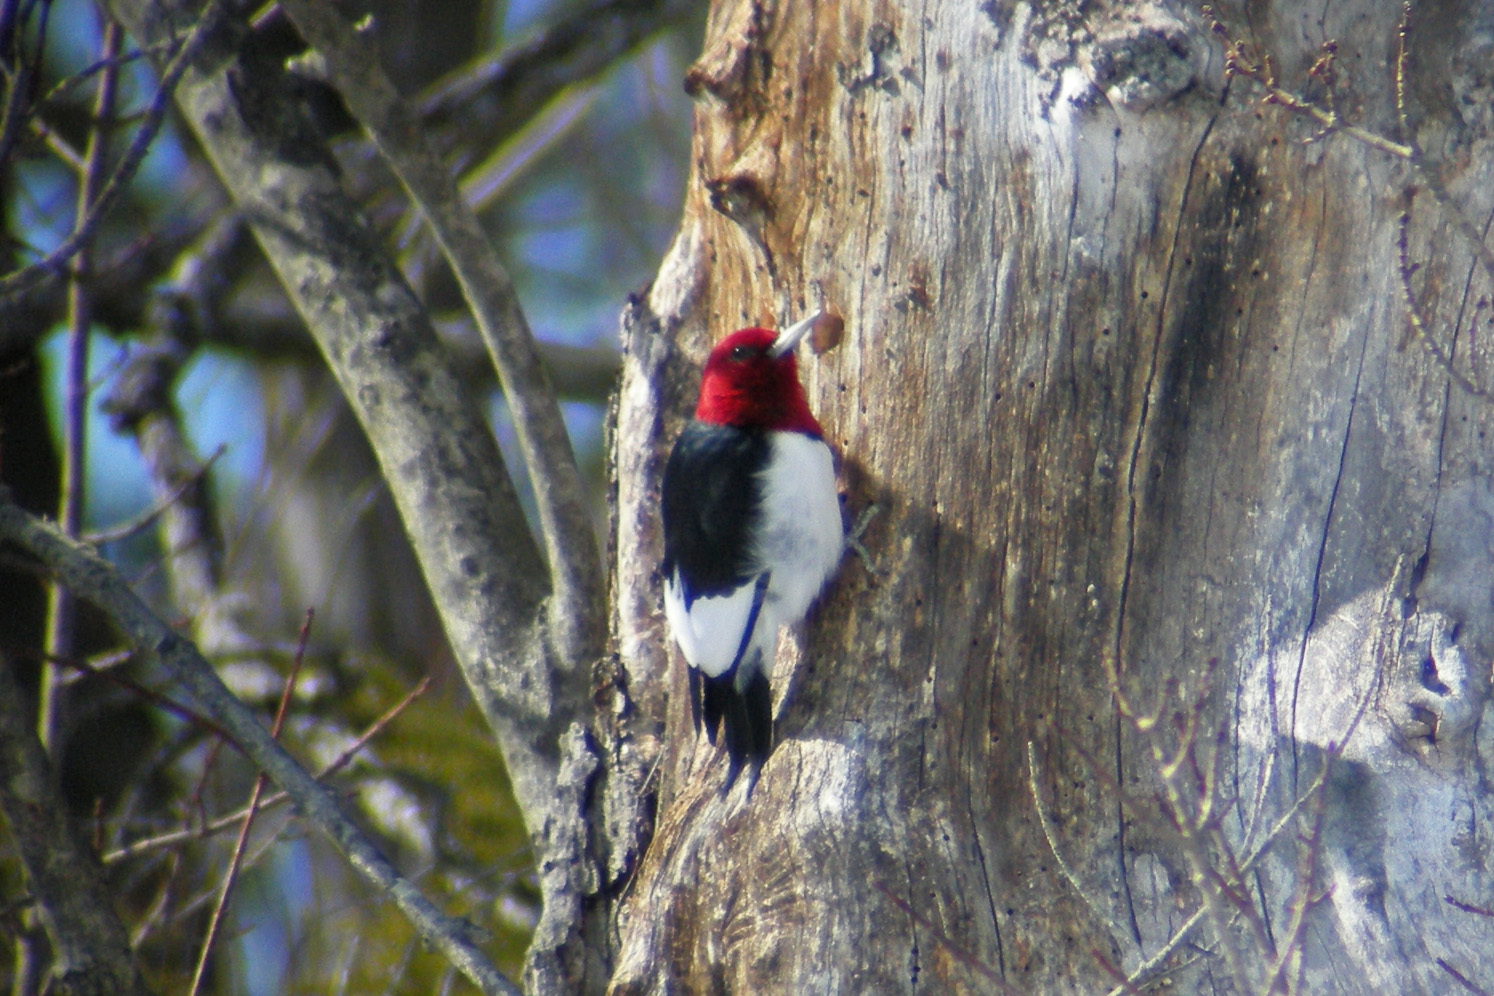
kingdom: Animalia
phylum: Chordata
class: Aves
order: Piciformes
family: Picidae
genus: Melanerpes
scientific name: Melanerpes erythrocephalus
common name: Red-headed woodpecker
